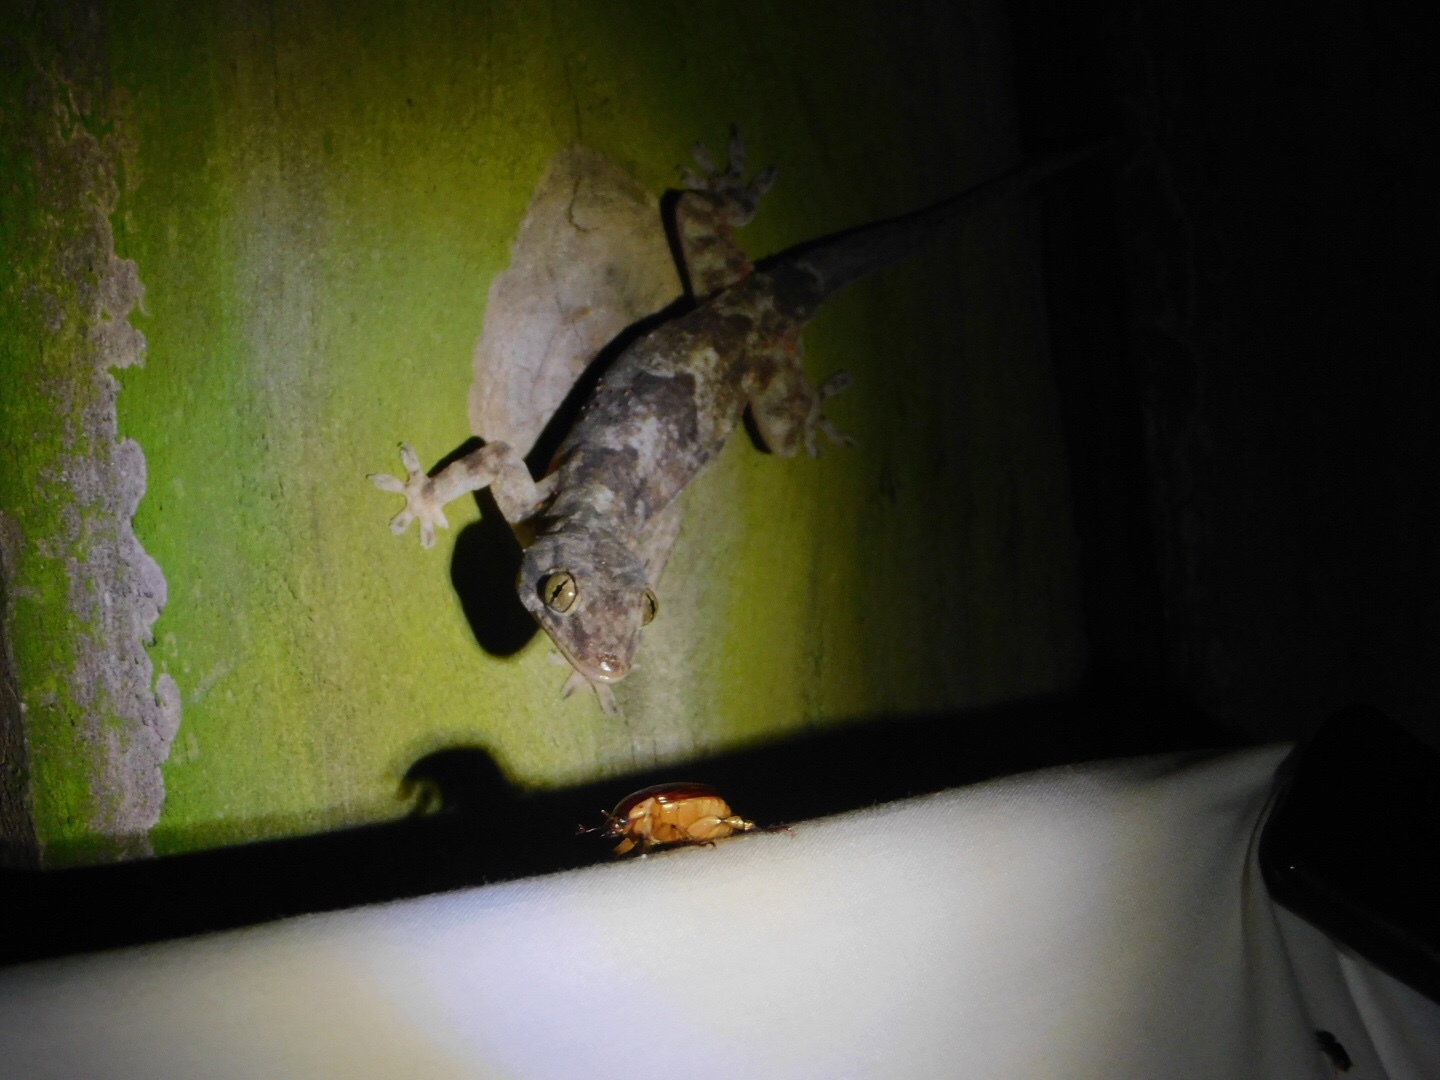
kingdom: Animalia
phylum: Chordata
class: Squamata
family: Gekkonidae
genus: Hemidactylus
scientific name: Hemidactylus mabouia
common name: House gecko
